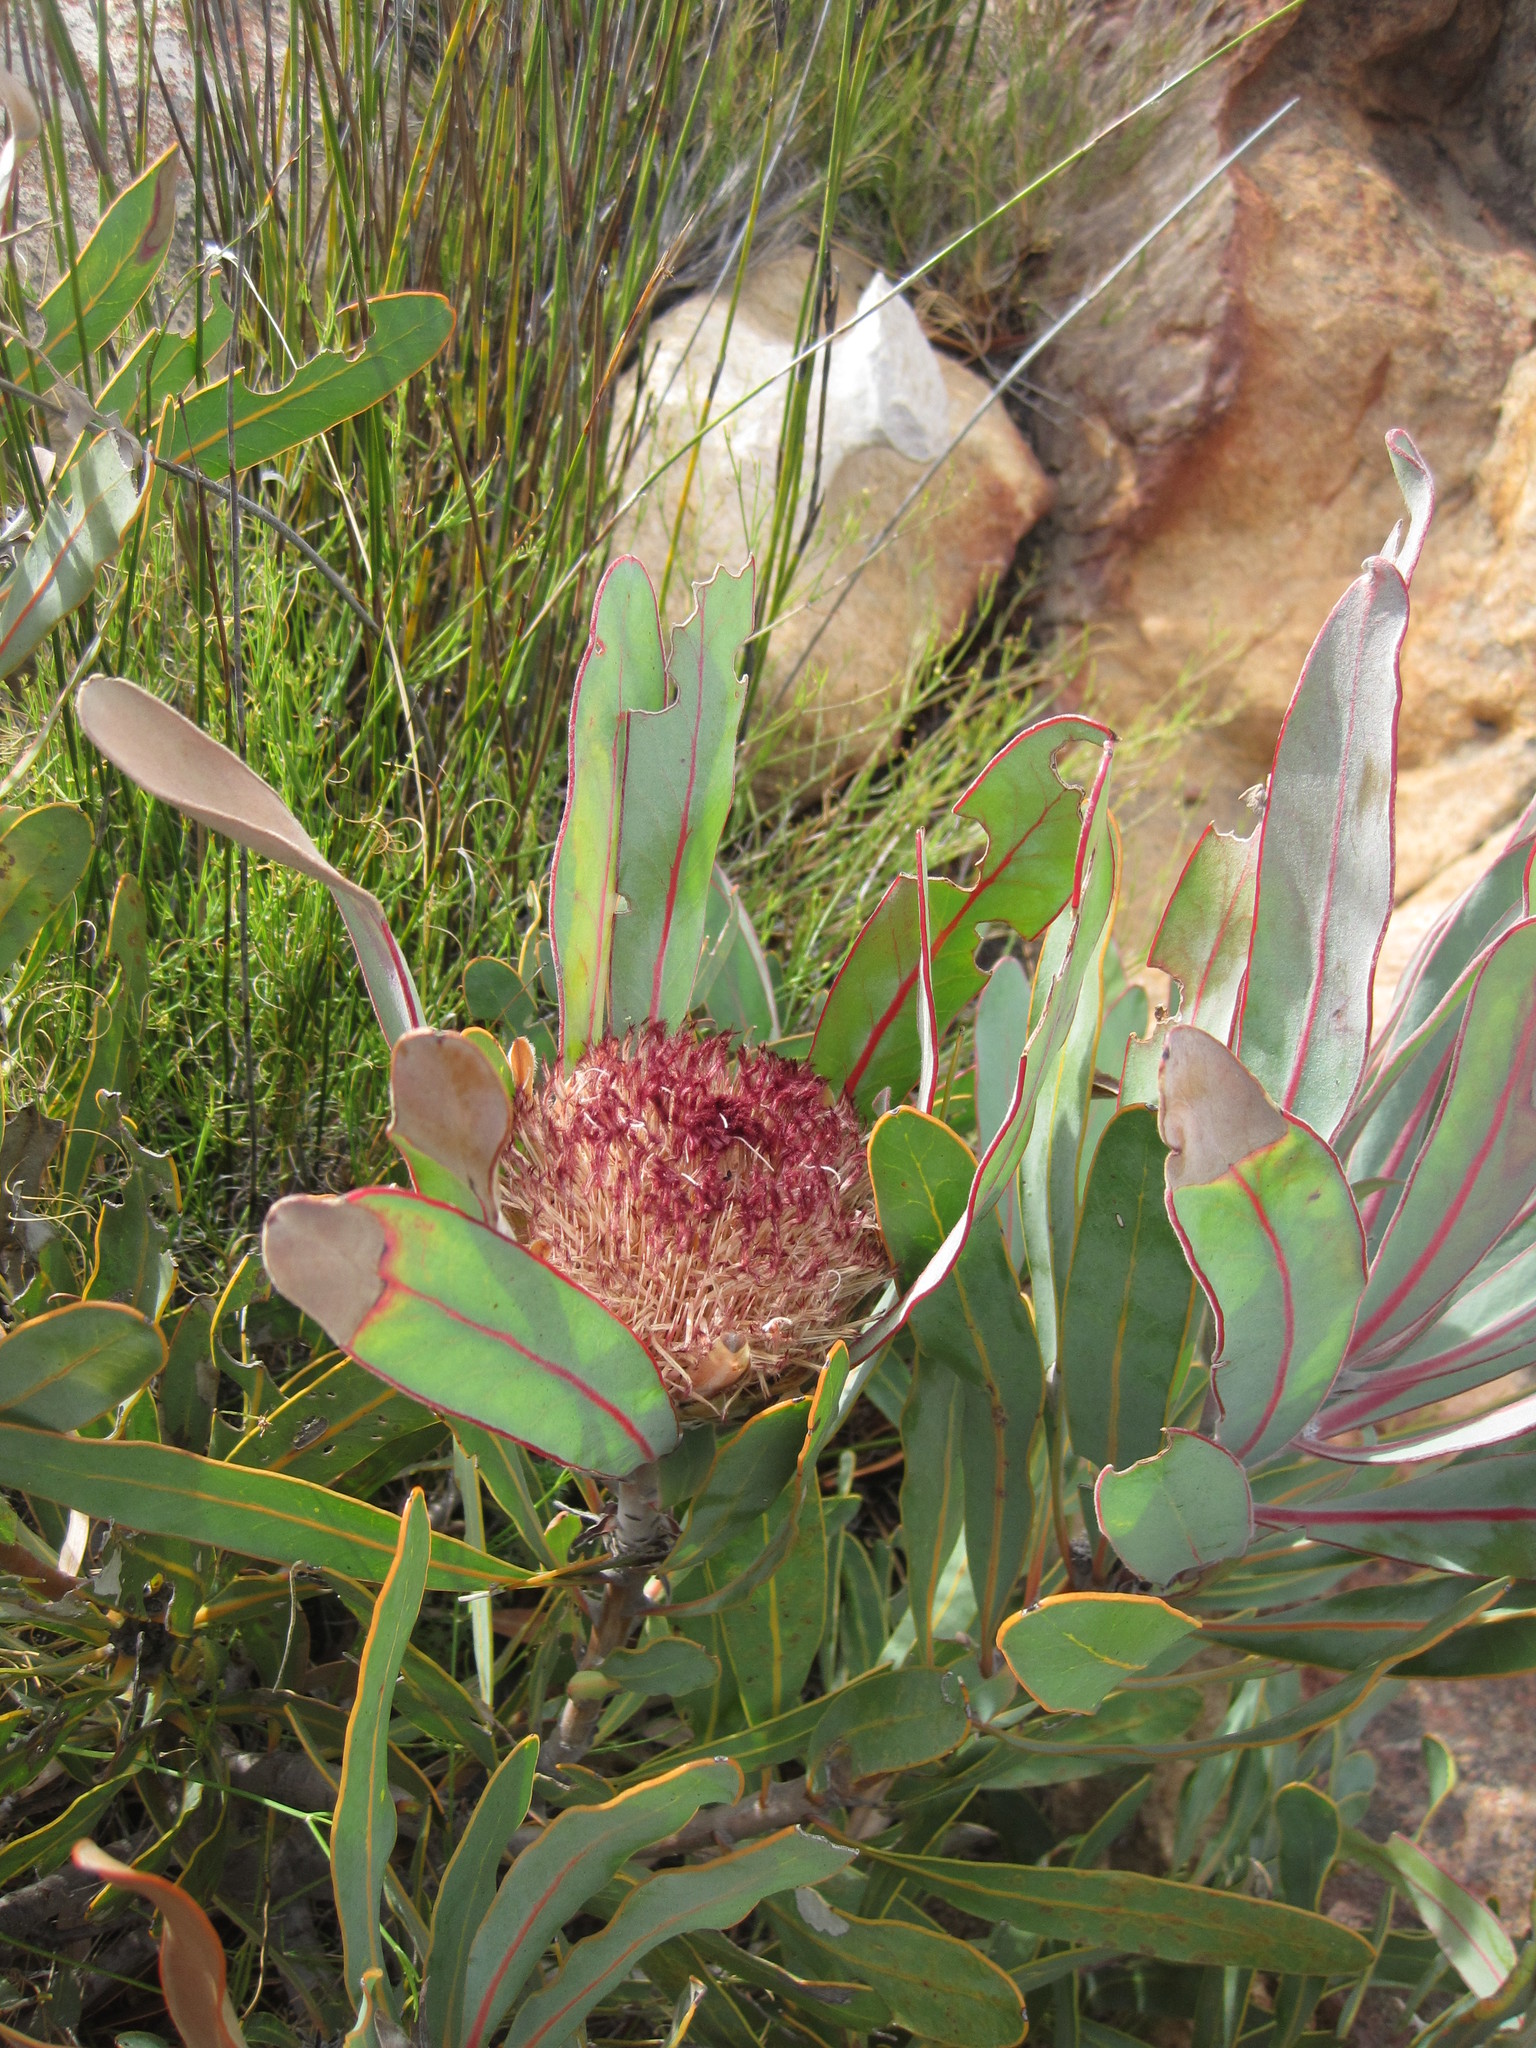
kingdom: Plantae
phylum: Tracheophyta
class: Magnoliopsida
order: Proteales
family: Proteaceae
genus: Protea
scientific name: Protea lorifolia
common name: Strap-leaved protea
